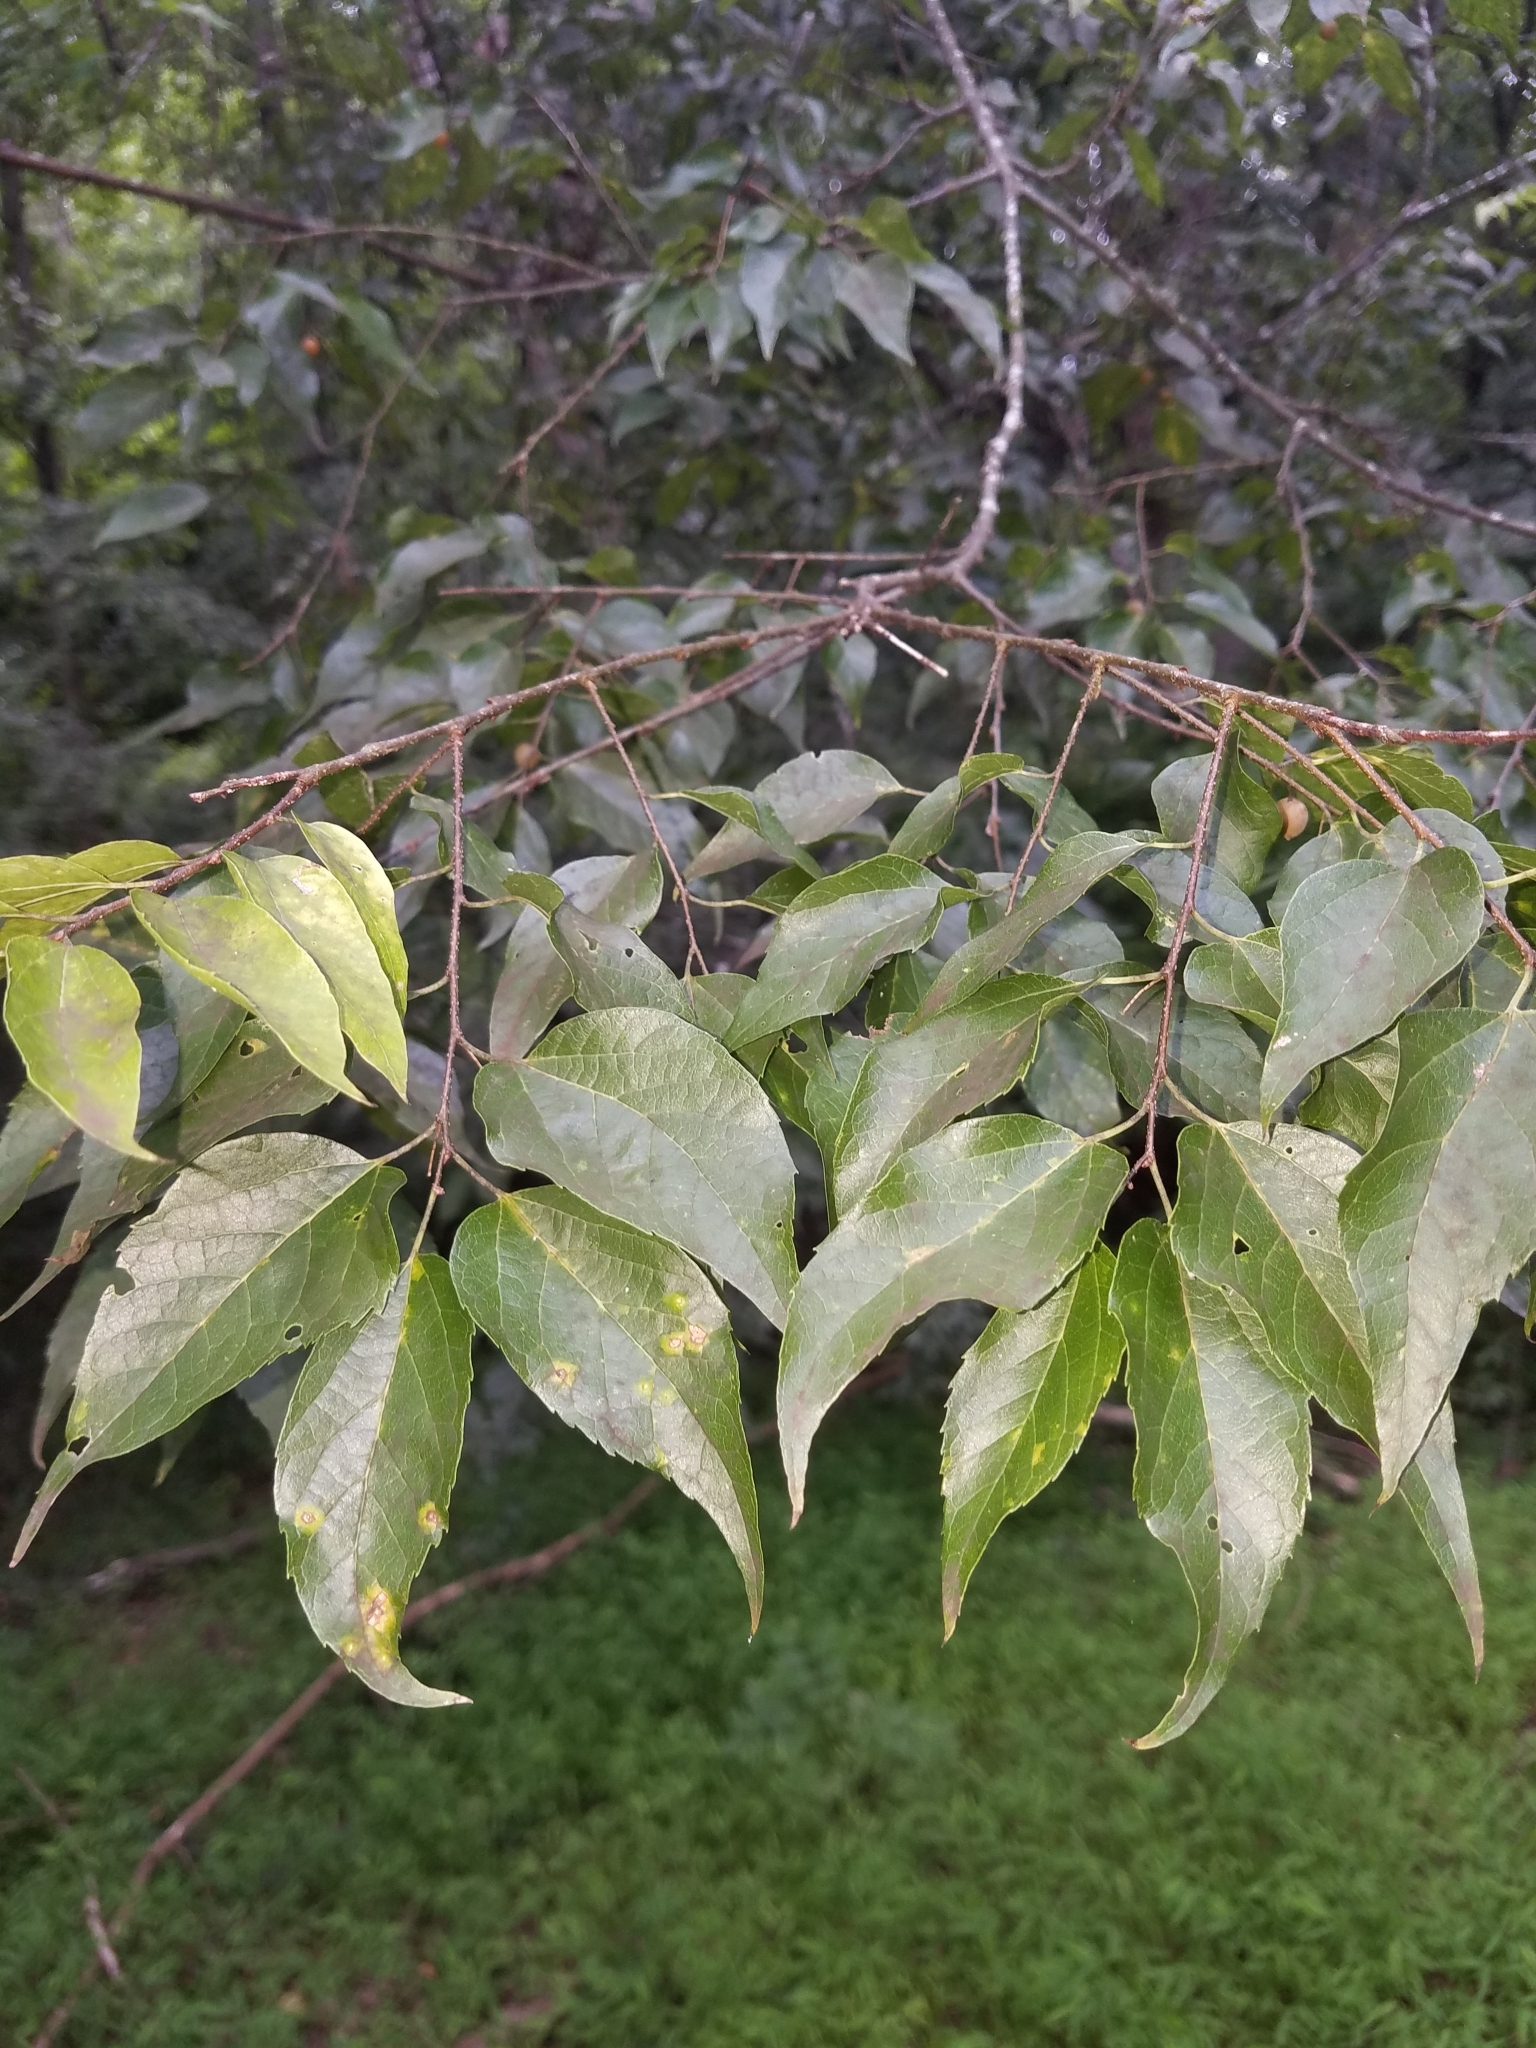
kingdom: Plantae
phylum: Tracheophyta
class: Magnoliopsida
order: Rosales
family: Cannabaceae
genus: Celtis
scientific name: Celtis laevigata
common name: Sugarberry
